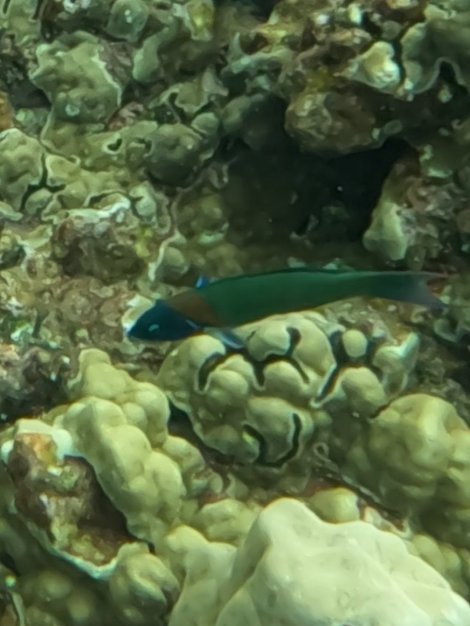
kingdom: Animalia
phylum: Chordata
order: Perciformes
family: Labridae
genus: Thalassoma
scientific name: Thalassoma duperrey
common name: Saddle wrasse
